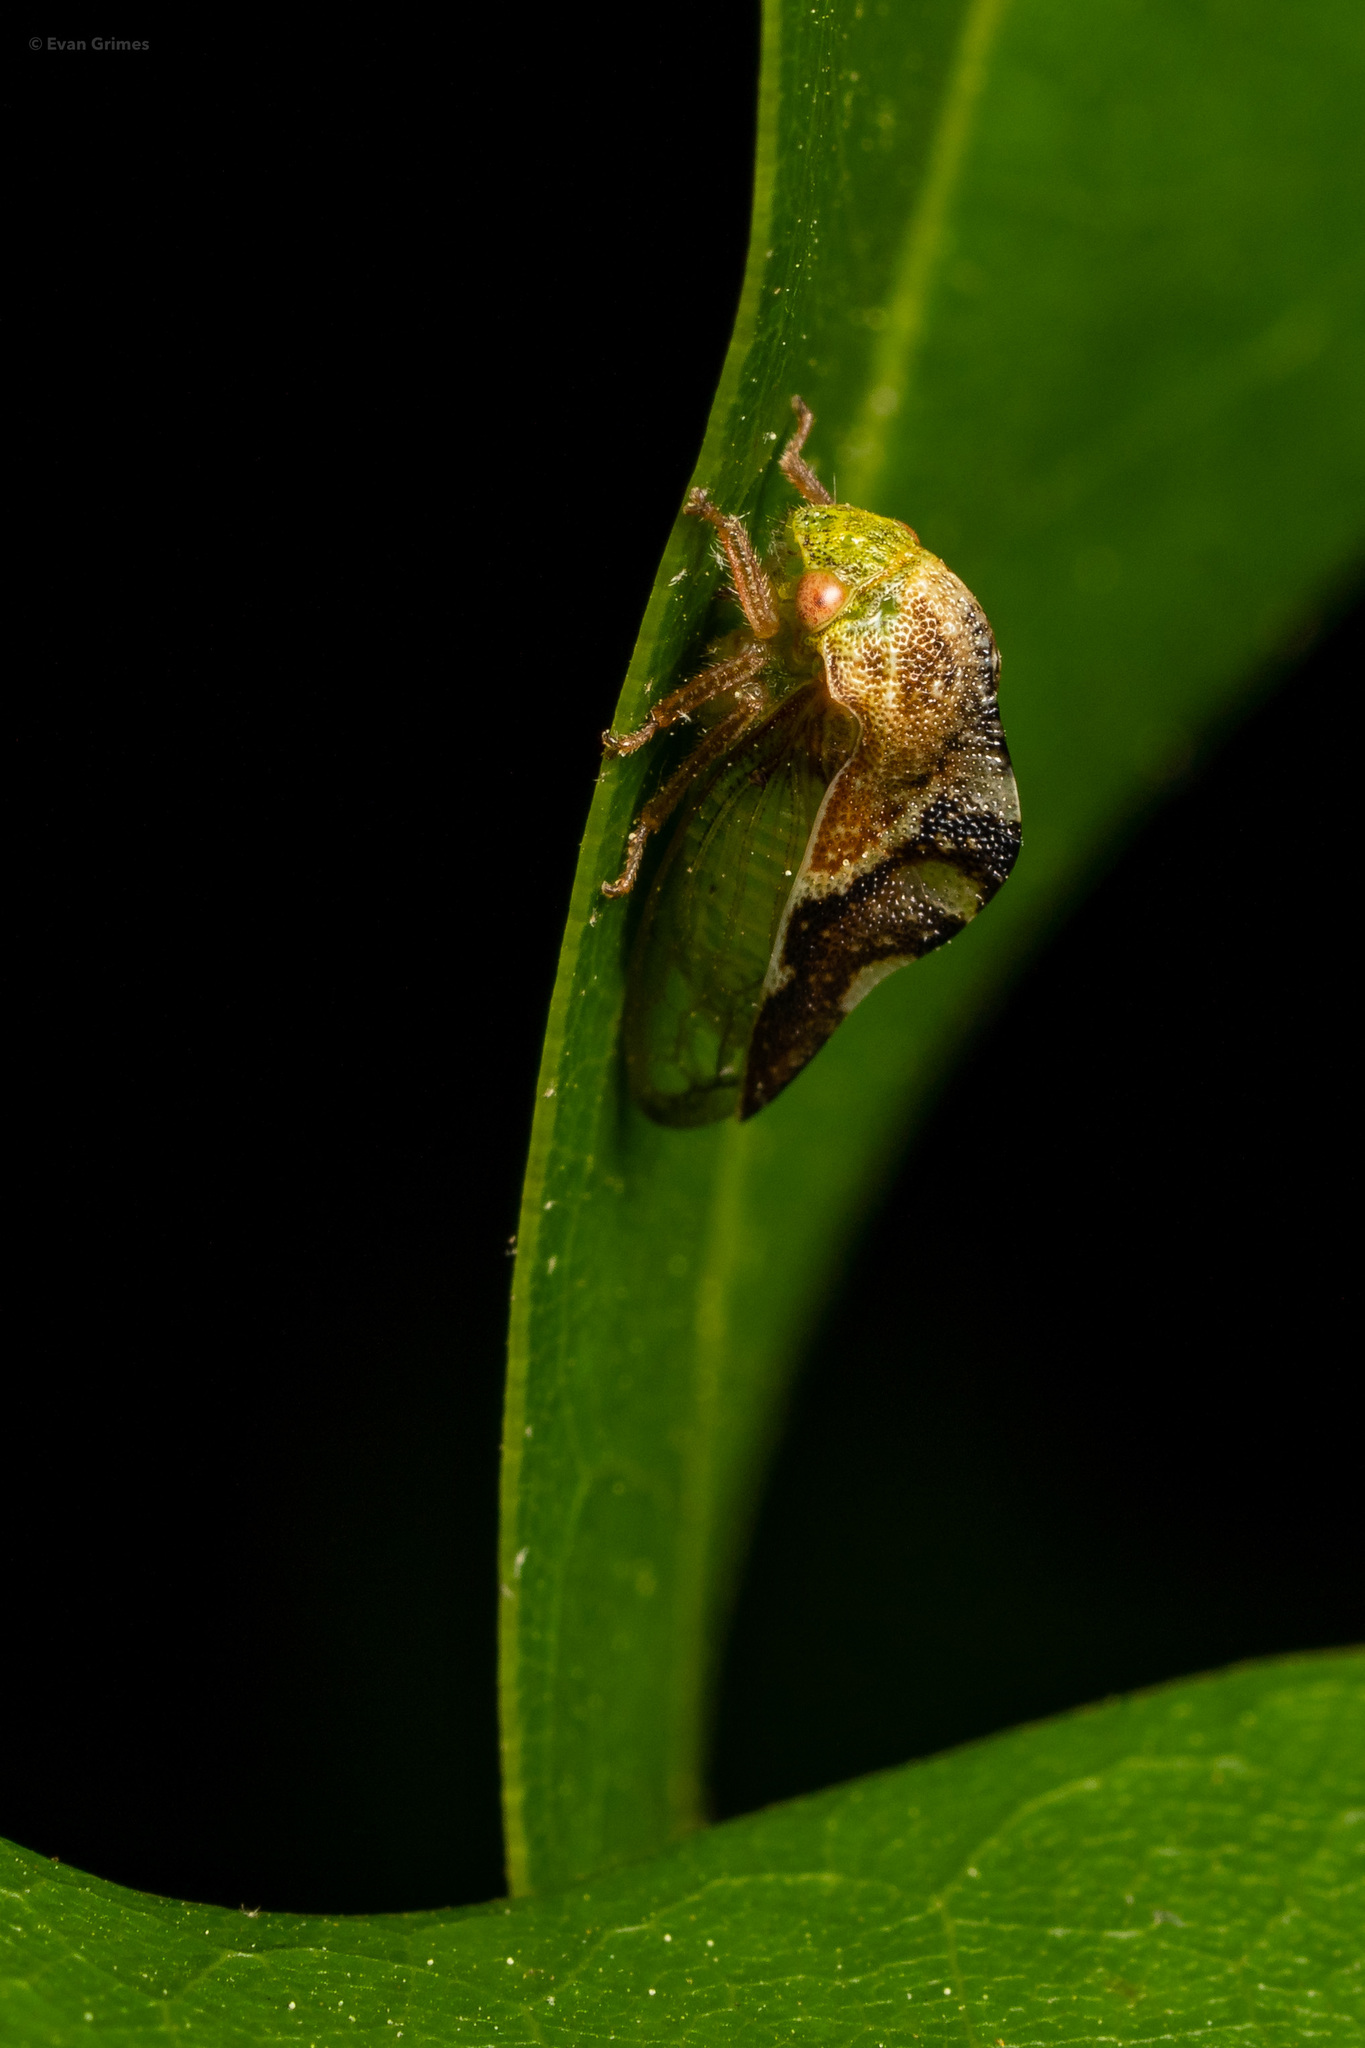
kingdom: Animalia
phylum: Arthropoda
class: Insecta
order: Hemiptera
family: Membracidae
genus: Cyrtolobus
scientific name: Cyrtolobus fenestrata
